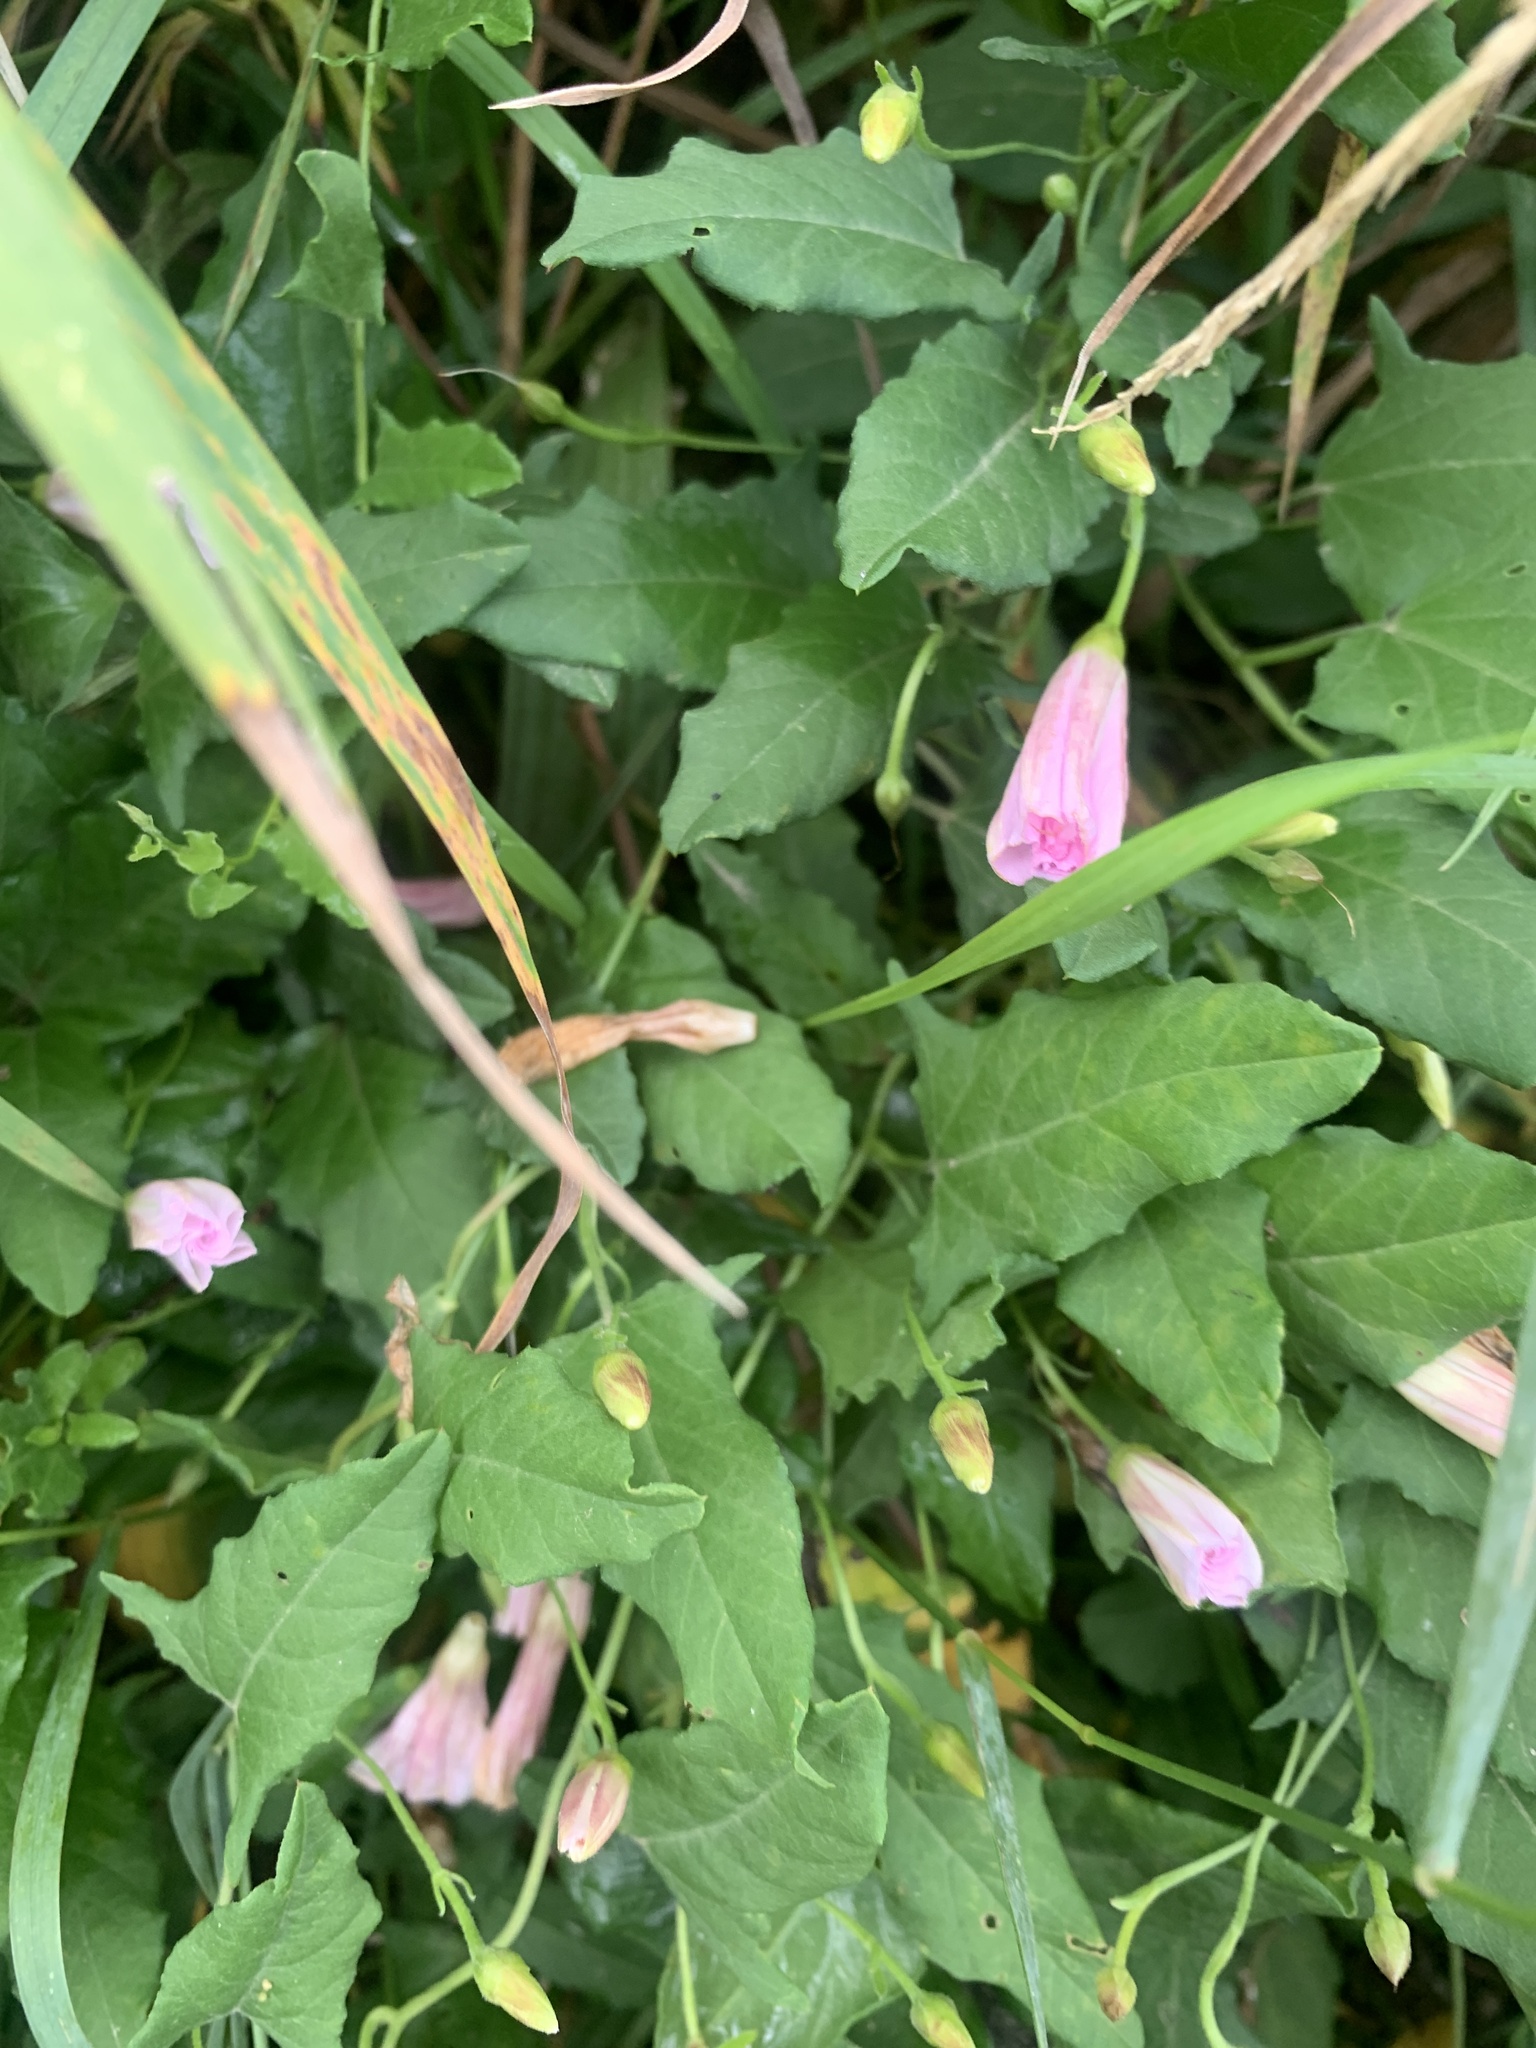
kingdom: Plantae
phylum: Tracheophyta
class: Magnoliopsida
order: Solanales
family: Convolvulaceae
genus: Convolvulus
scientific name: Convolvulus arvensis
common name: Field bindweed
